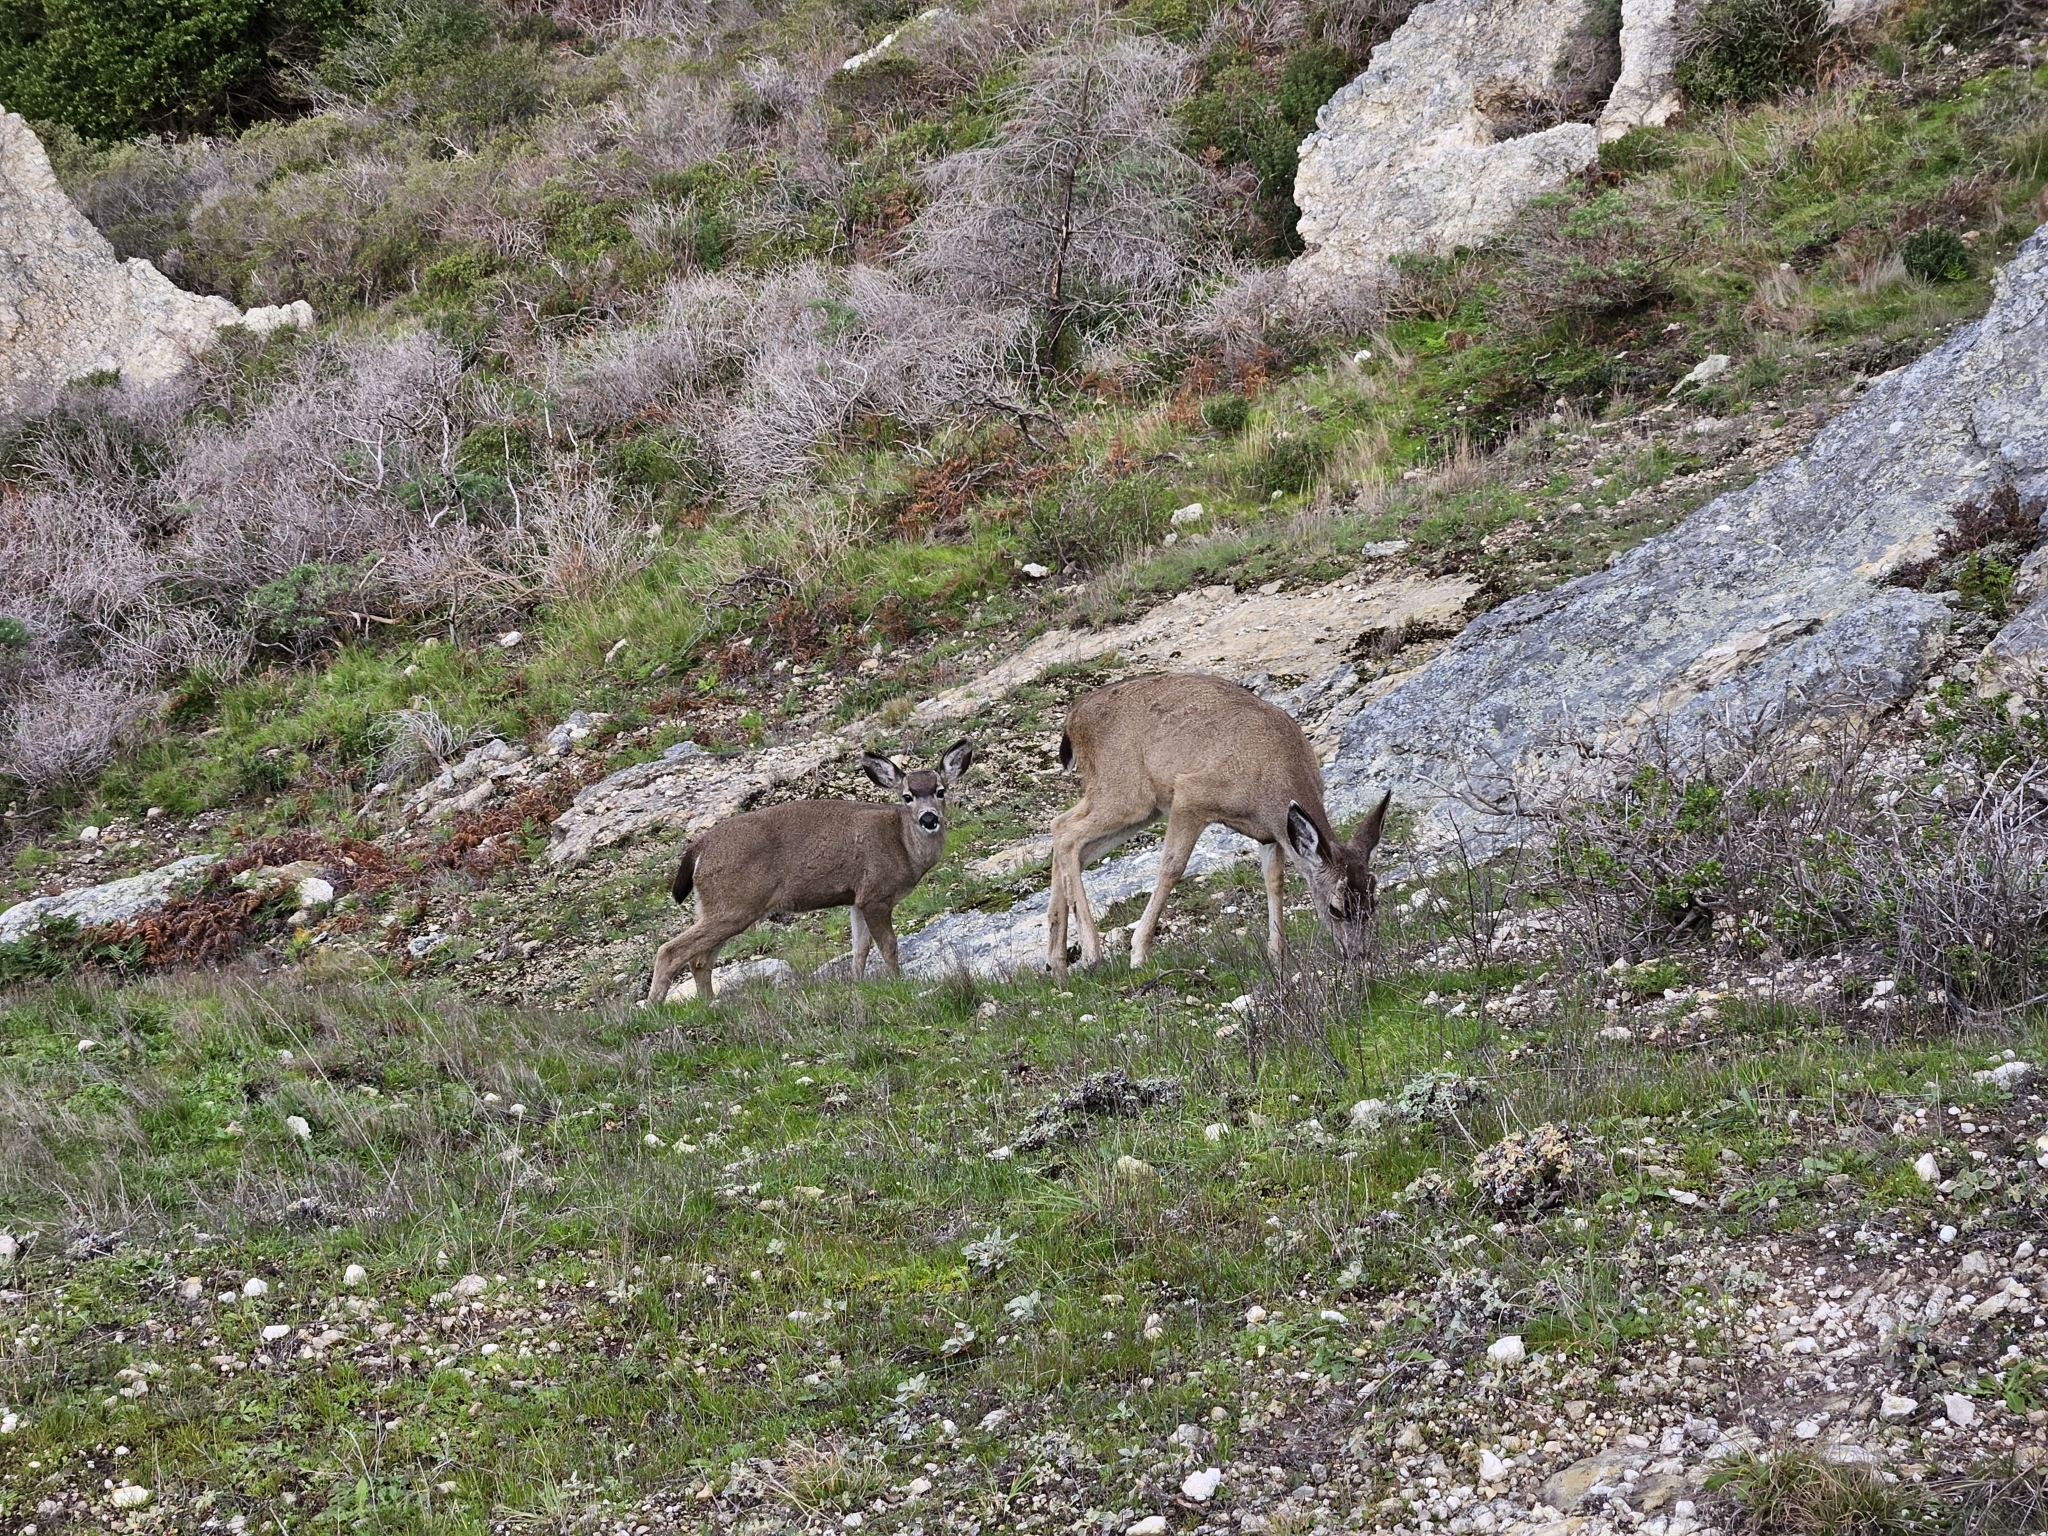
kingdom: Animalia
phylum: Chordata
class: Mammalia
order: Artiodactyla
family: Cervidae
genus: Odocoileus
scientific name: Odocoileus hemionus
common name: Mule deer
